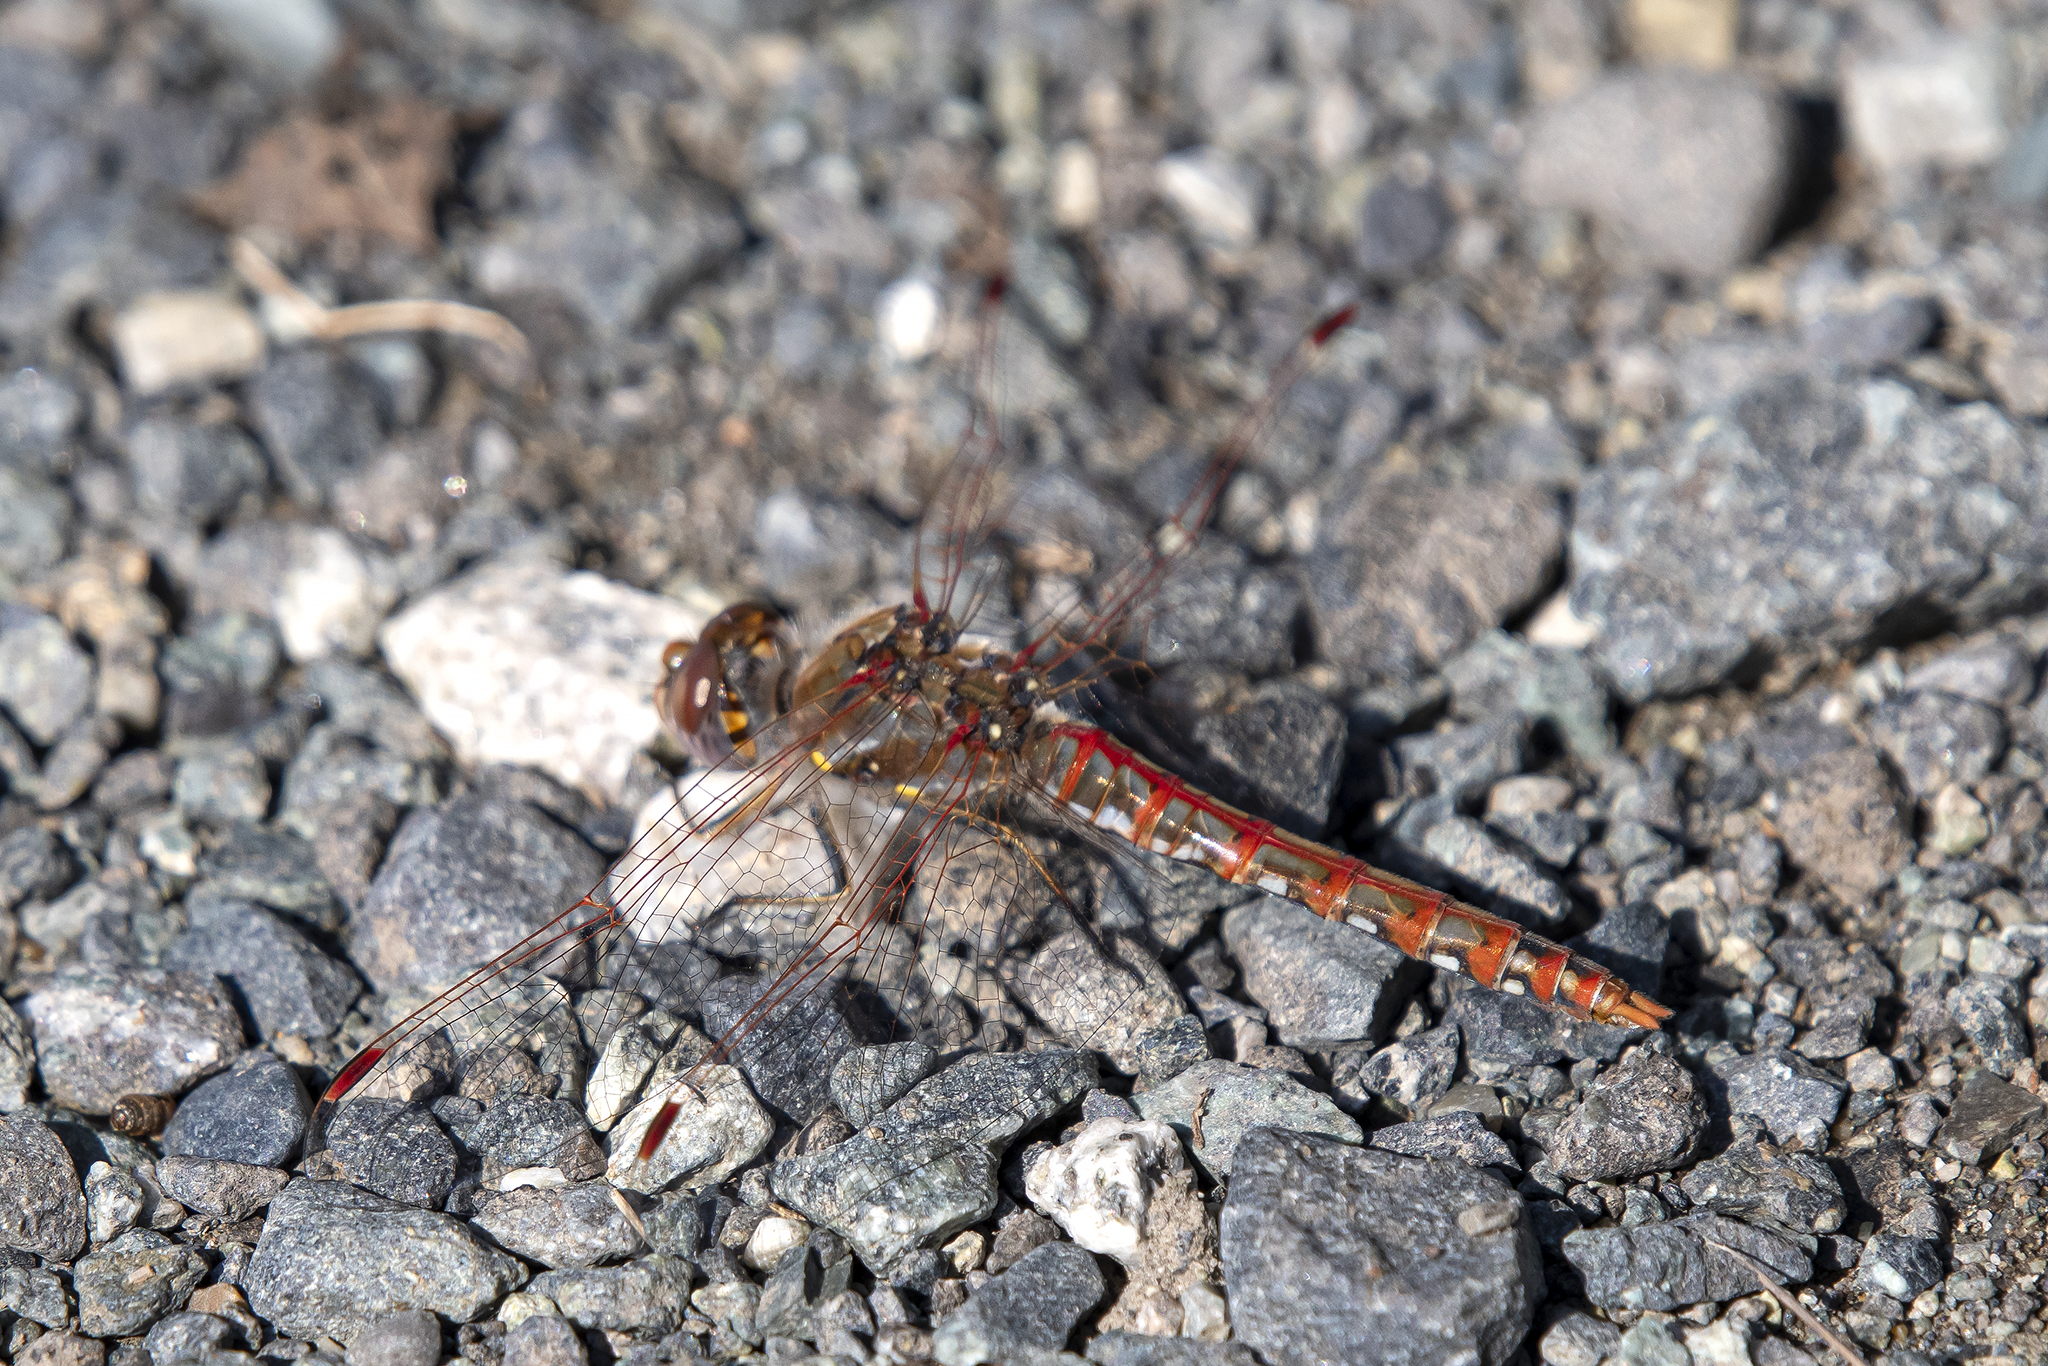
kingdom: Animalia
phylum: Arthropoda
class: Insecta
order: Odonata
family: Libellulidae
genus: Sympetrum
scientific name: Sympetrum corruptum
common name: Variegated meadowhawk
